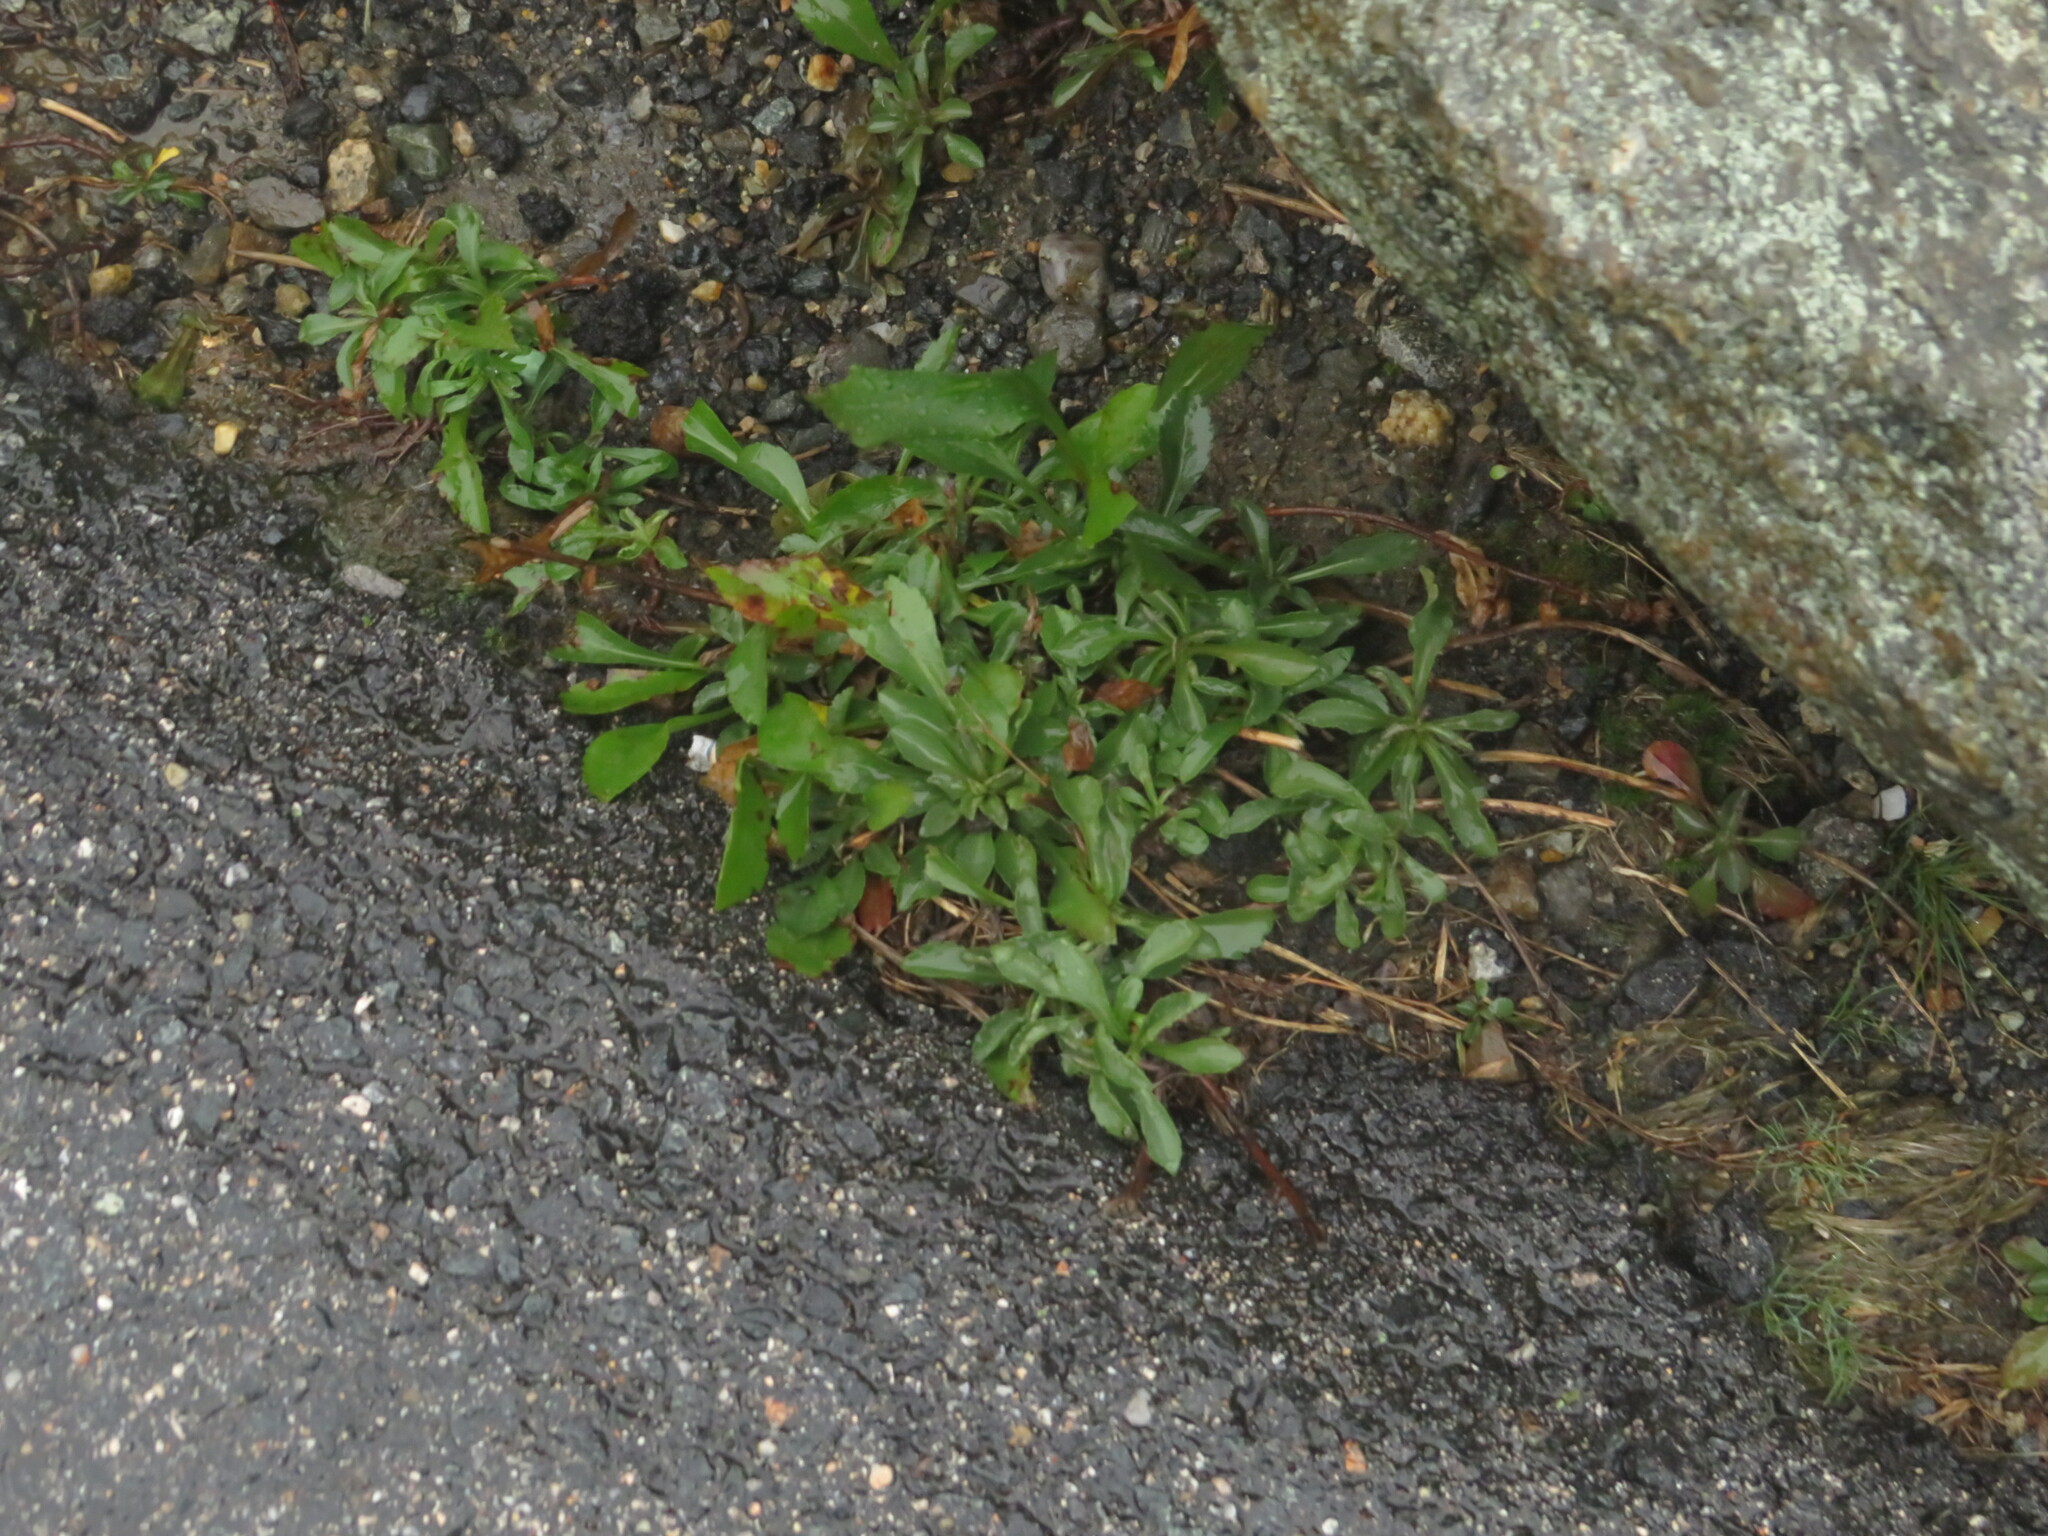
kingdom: Plantae
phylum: Tracheophyta
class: Magnoliopsida
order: Asterales
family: Asteraceae
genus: Solidago
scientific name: Solidago leiocarpa
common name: Cutler's alpine goldenrod
